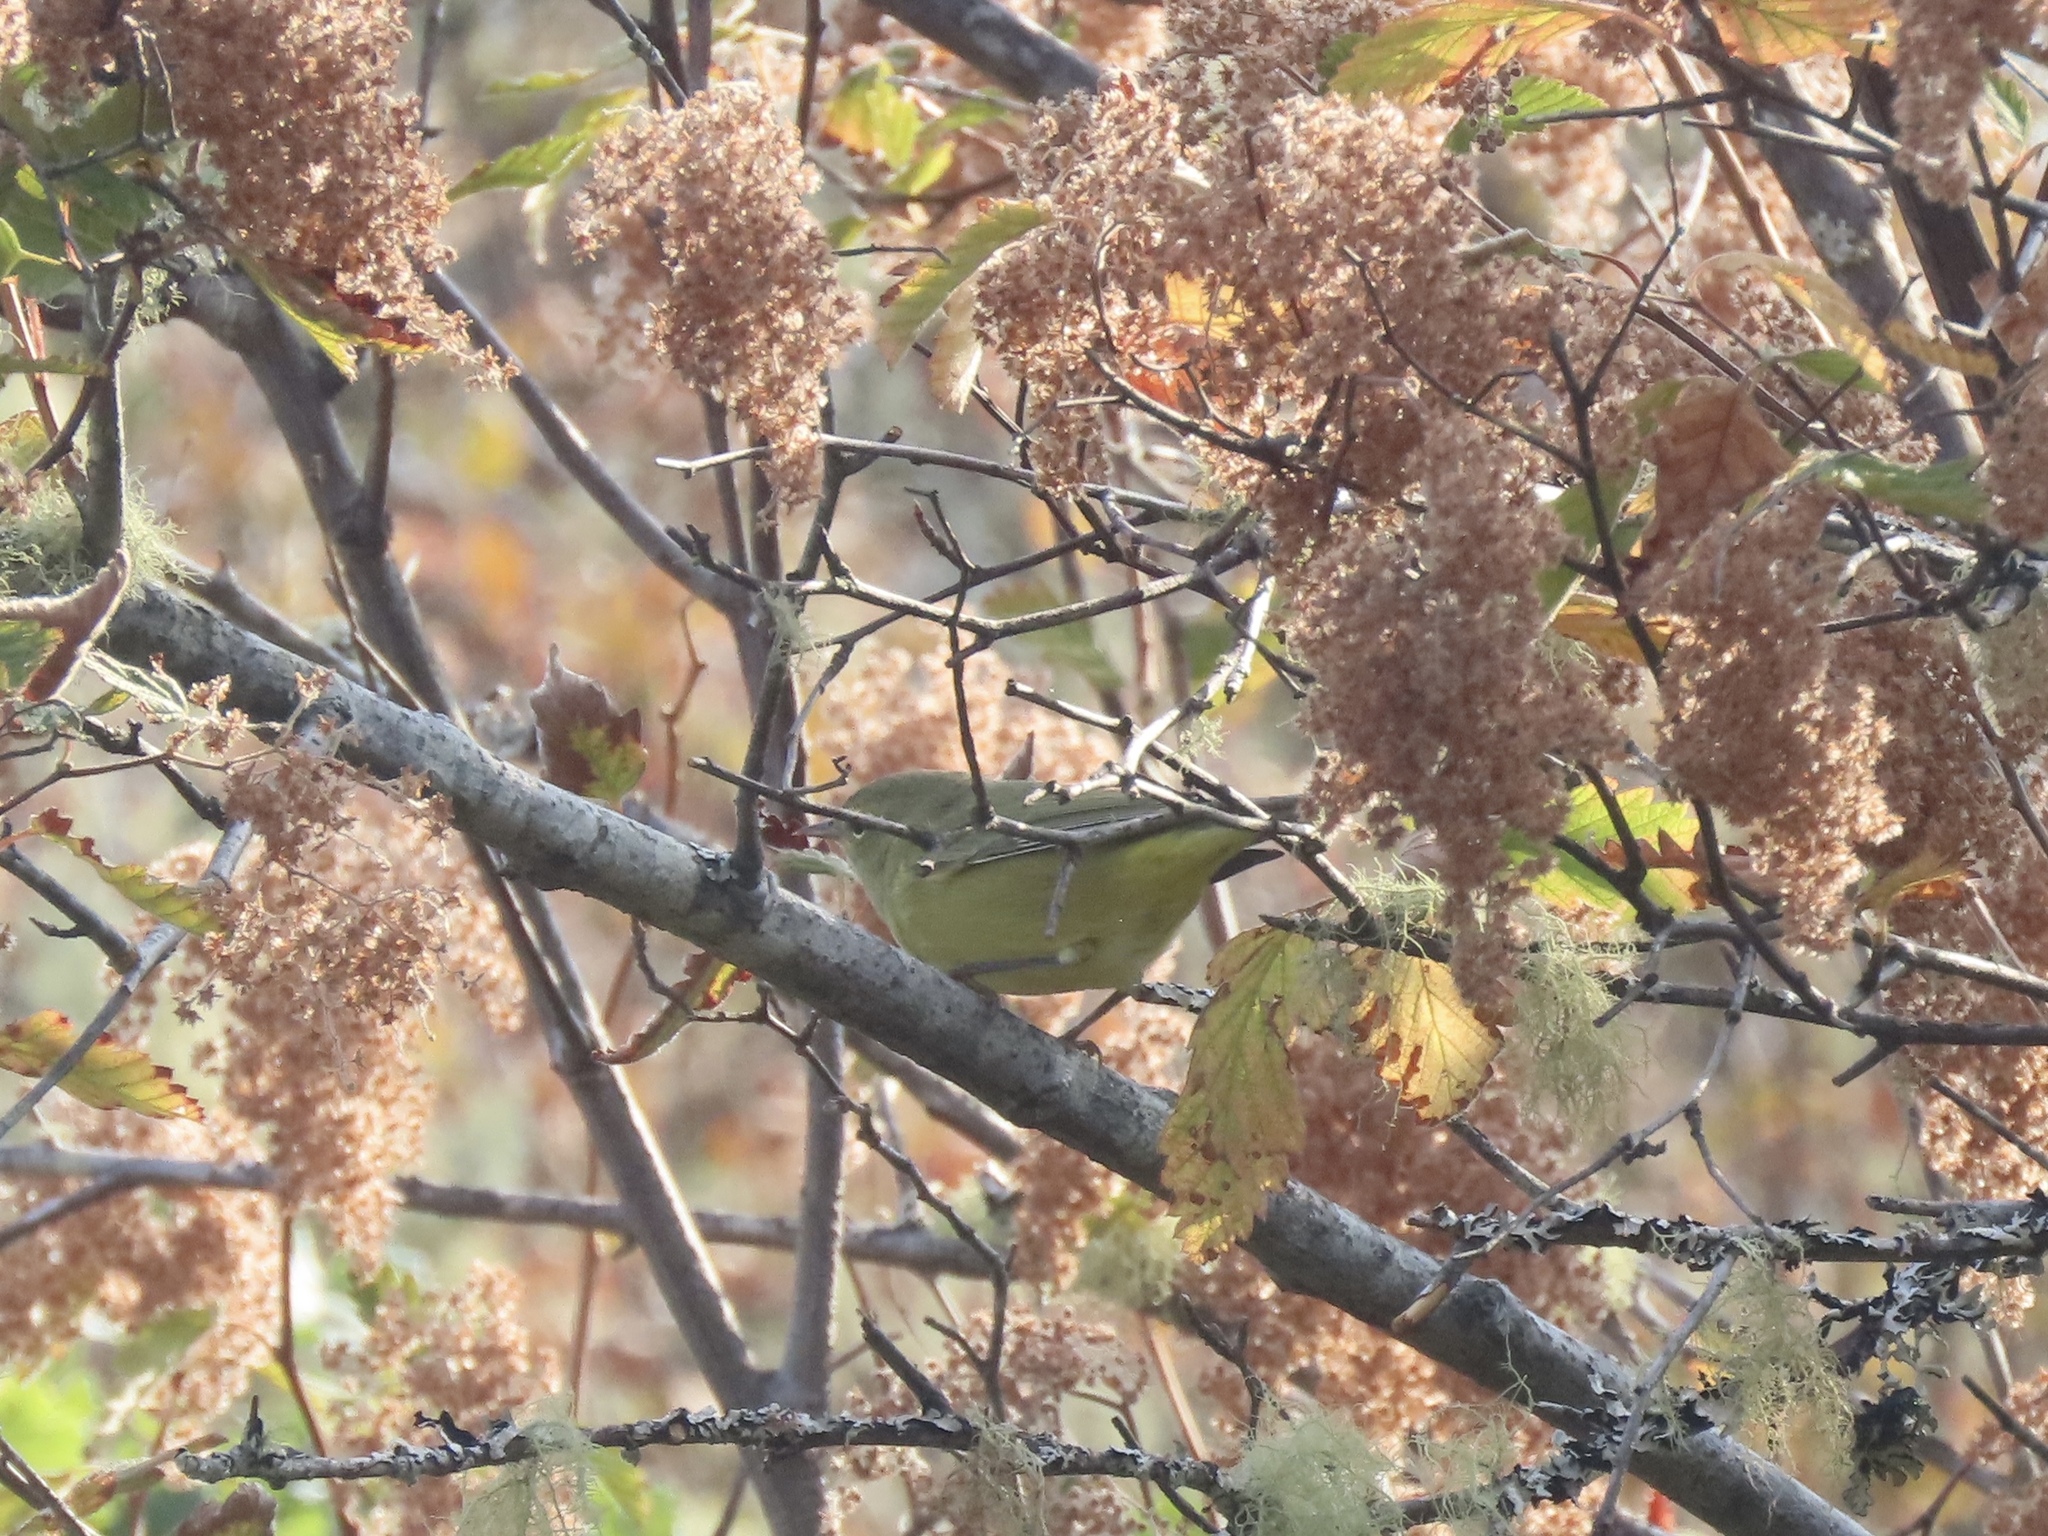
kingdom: Animalia
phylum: Chordata
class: Aves
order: Passeriformes
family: Parulidae
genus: Leiothlypis
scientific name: Leiothlypis celata
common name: Orange-crowned warbler
